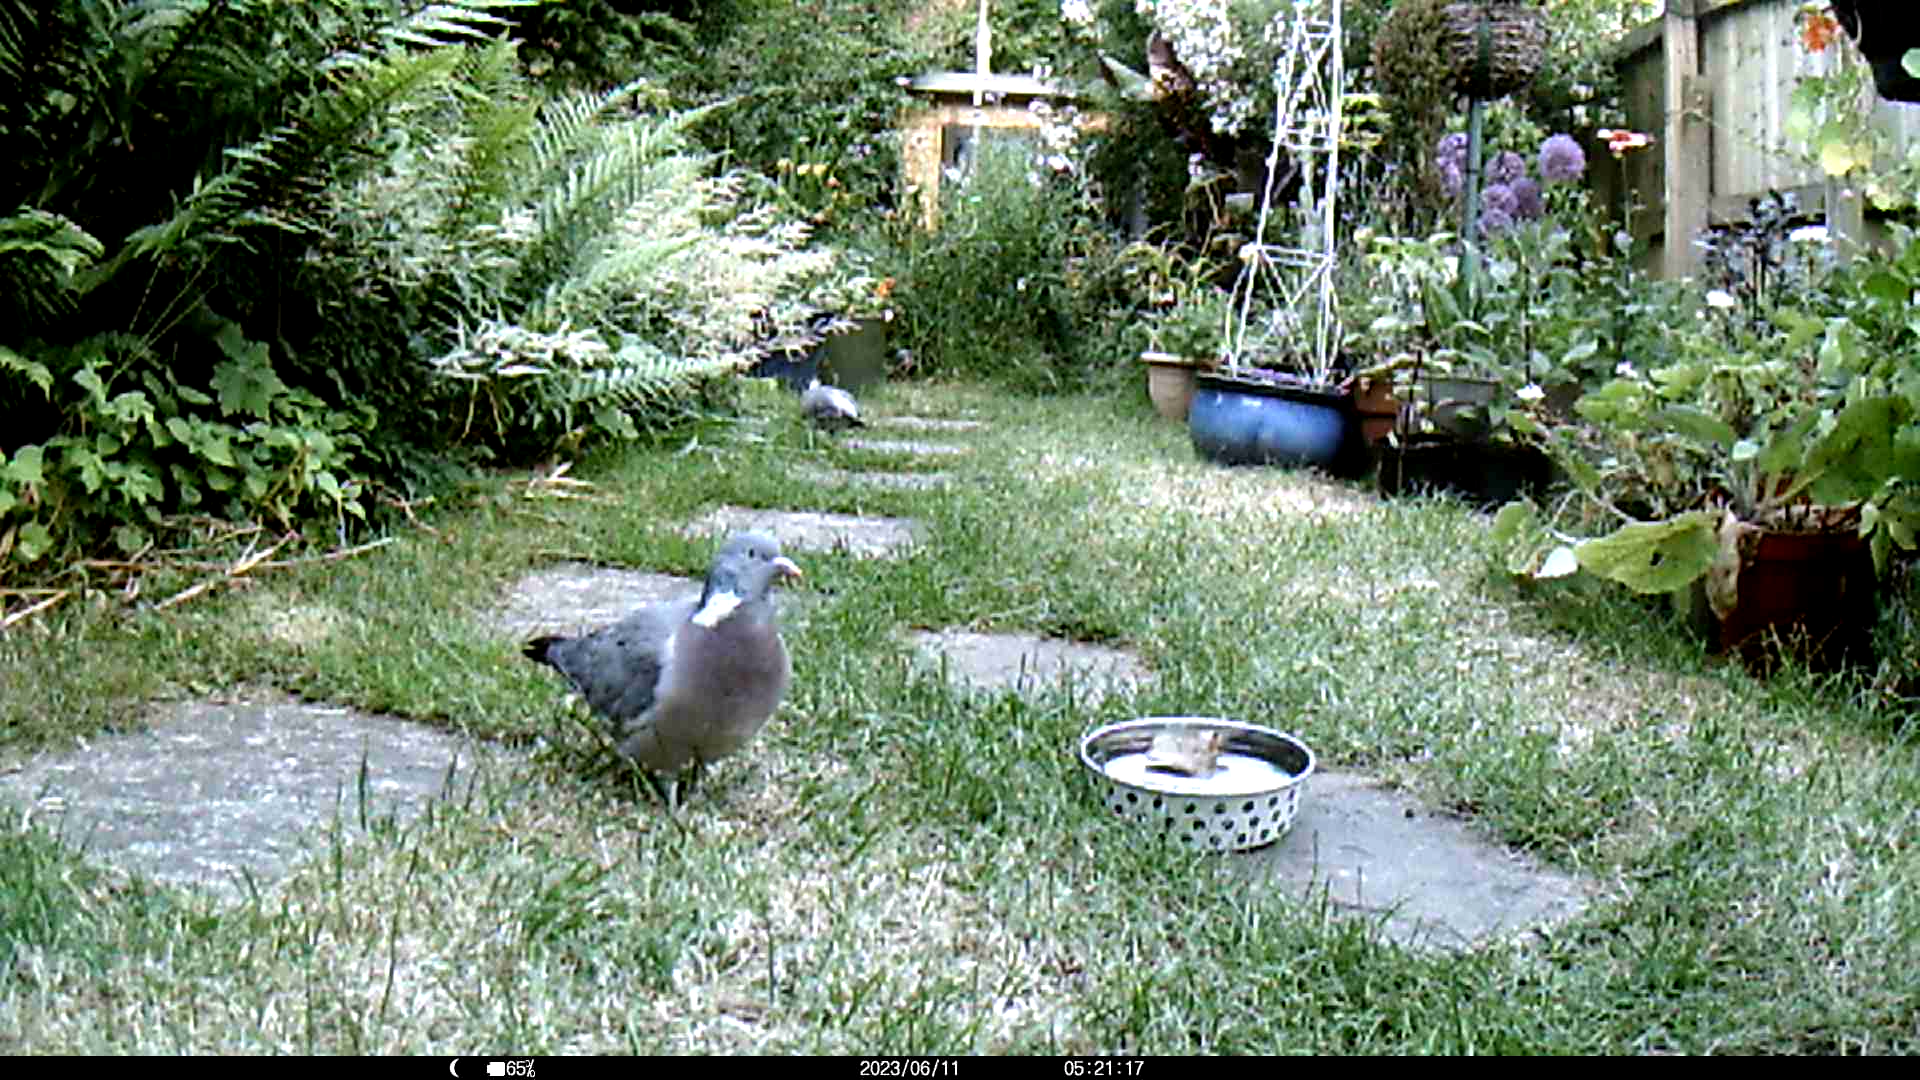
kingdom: Animalia
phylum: Chordata
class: Aves
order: Columbiformes
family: Columbidae
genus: Columba
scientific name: Columba palumbus
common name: Common wood pigeon
